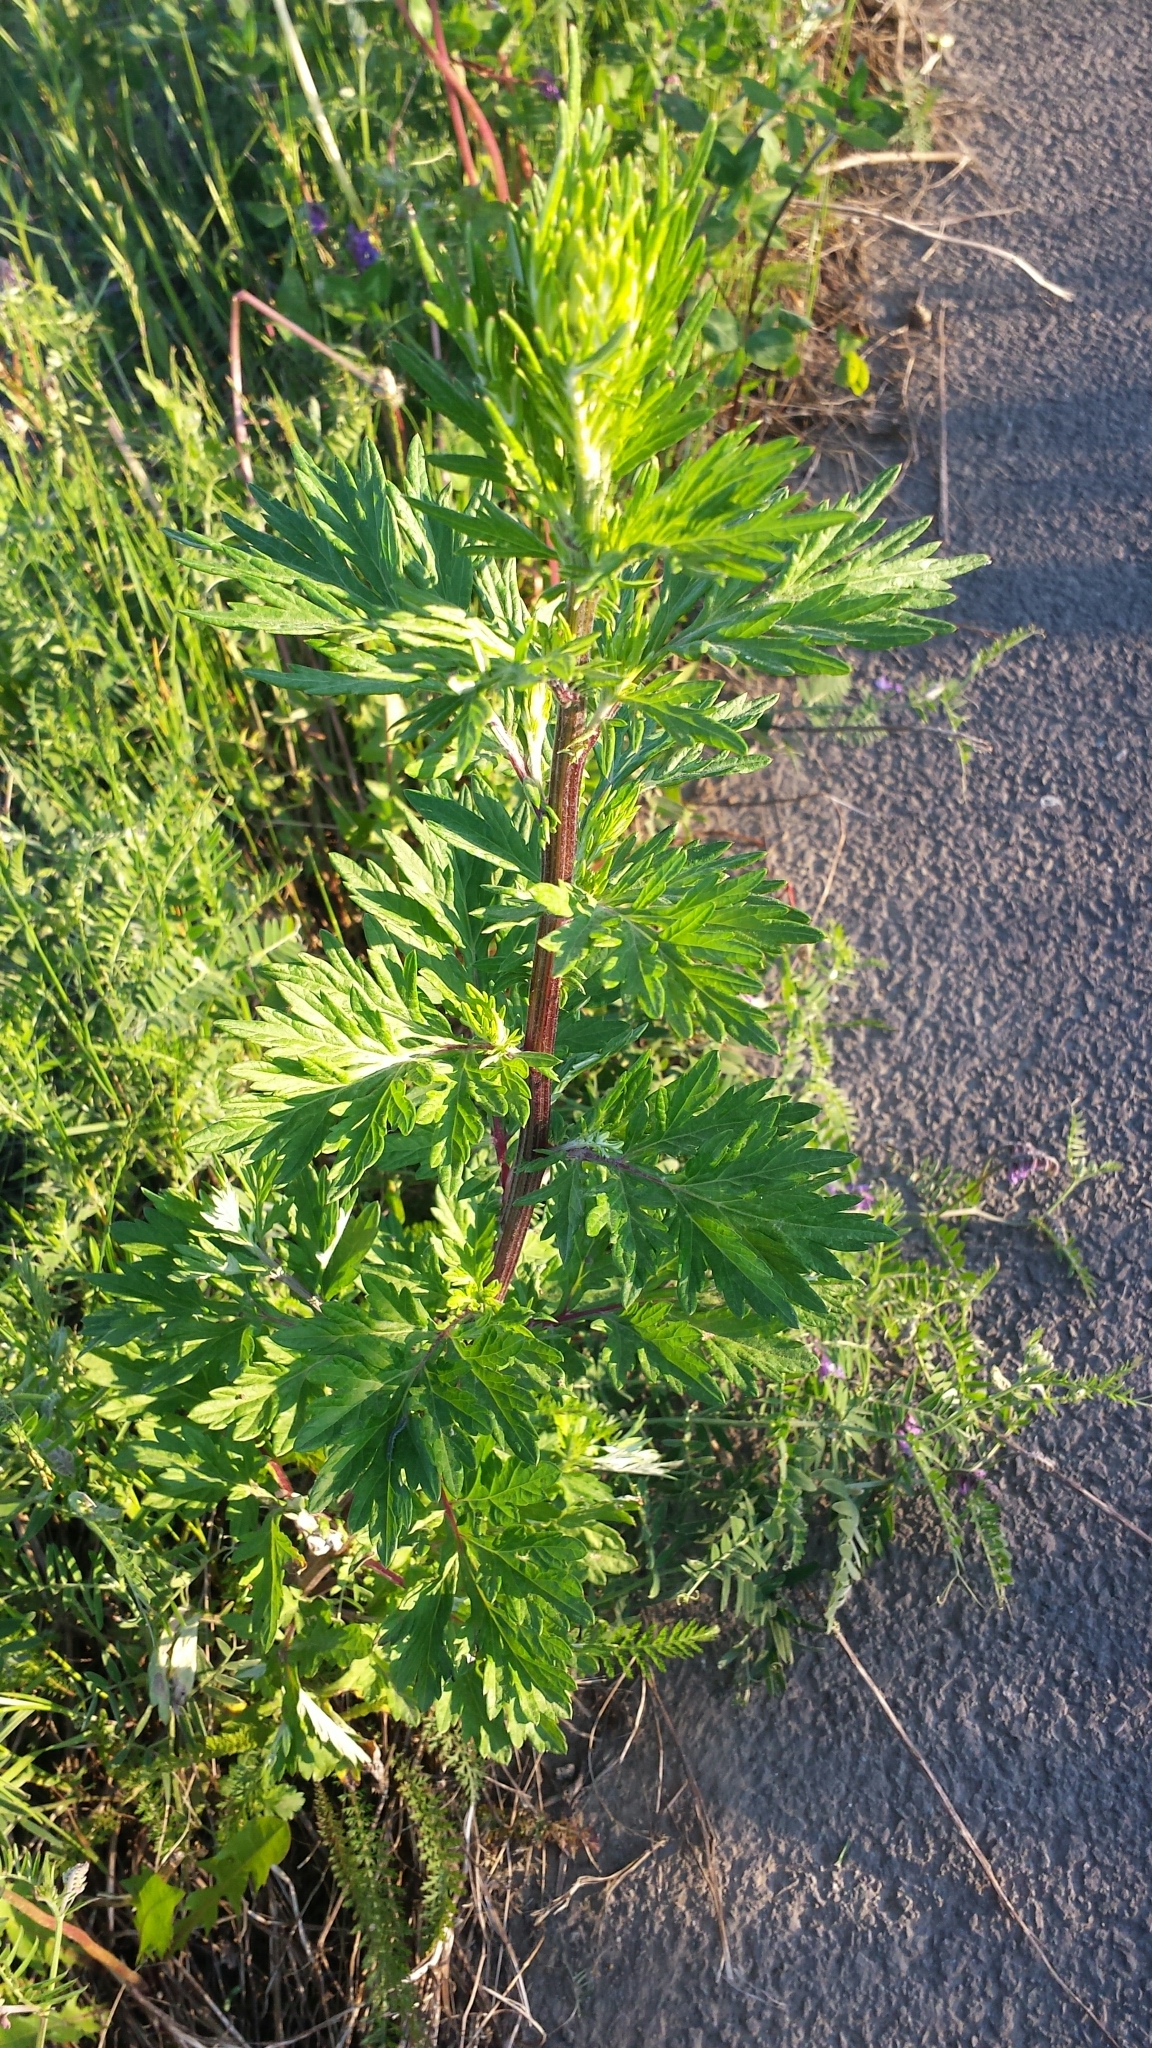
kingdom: Plantae
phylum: Tracheophyta
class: Magnoliopsida
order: Asterales
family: Asteraceae
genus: Artemisia
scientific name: Artemisia vulgaris
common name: Mugwort
